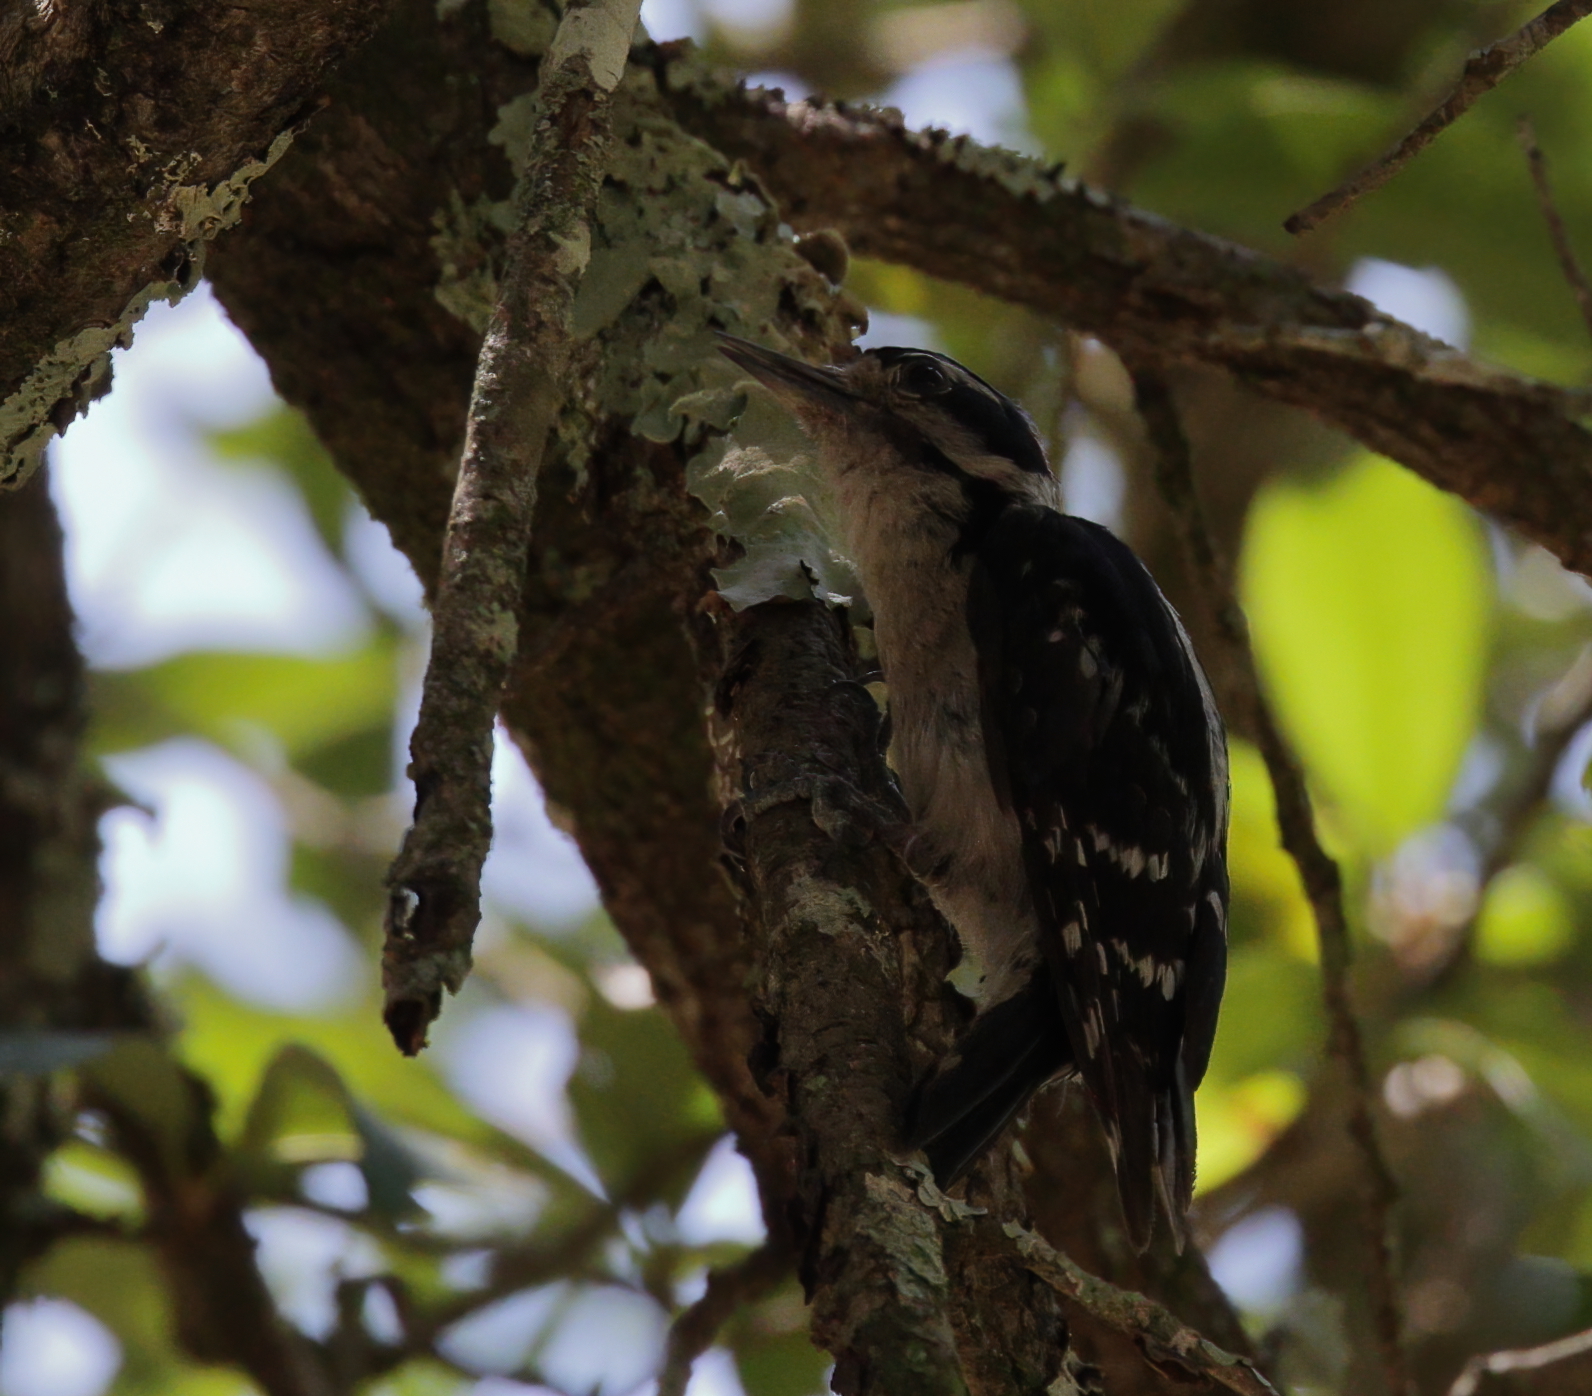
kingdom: Animalia
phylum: Chordata
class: Aves
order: Piciformes
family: Picidae
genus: Dryobates
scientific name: Dryobates pubescens
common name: Downy woodpecker
